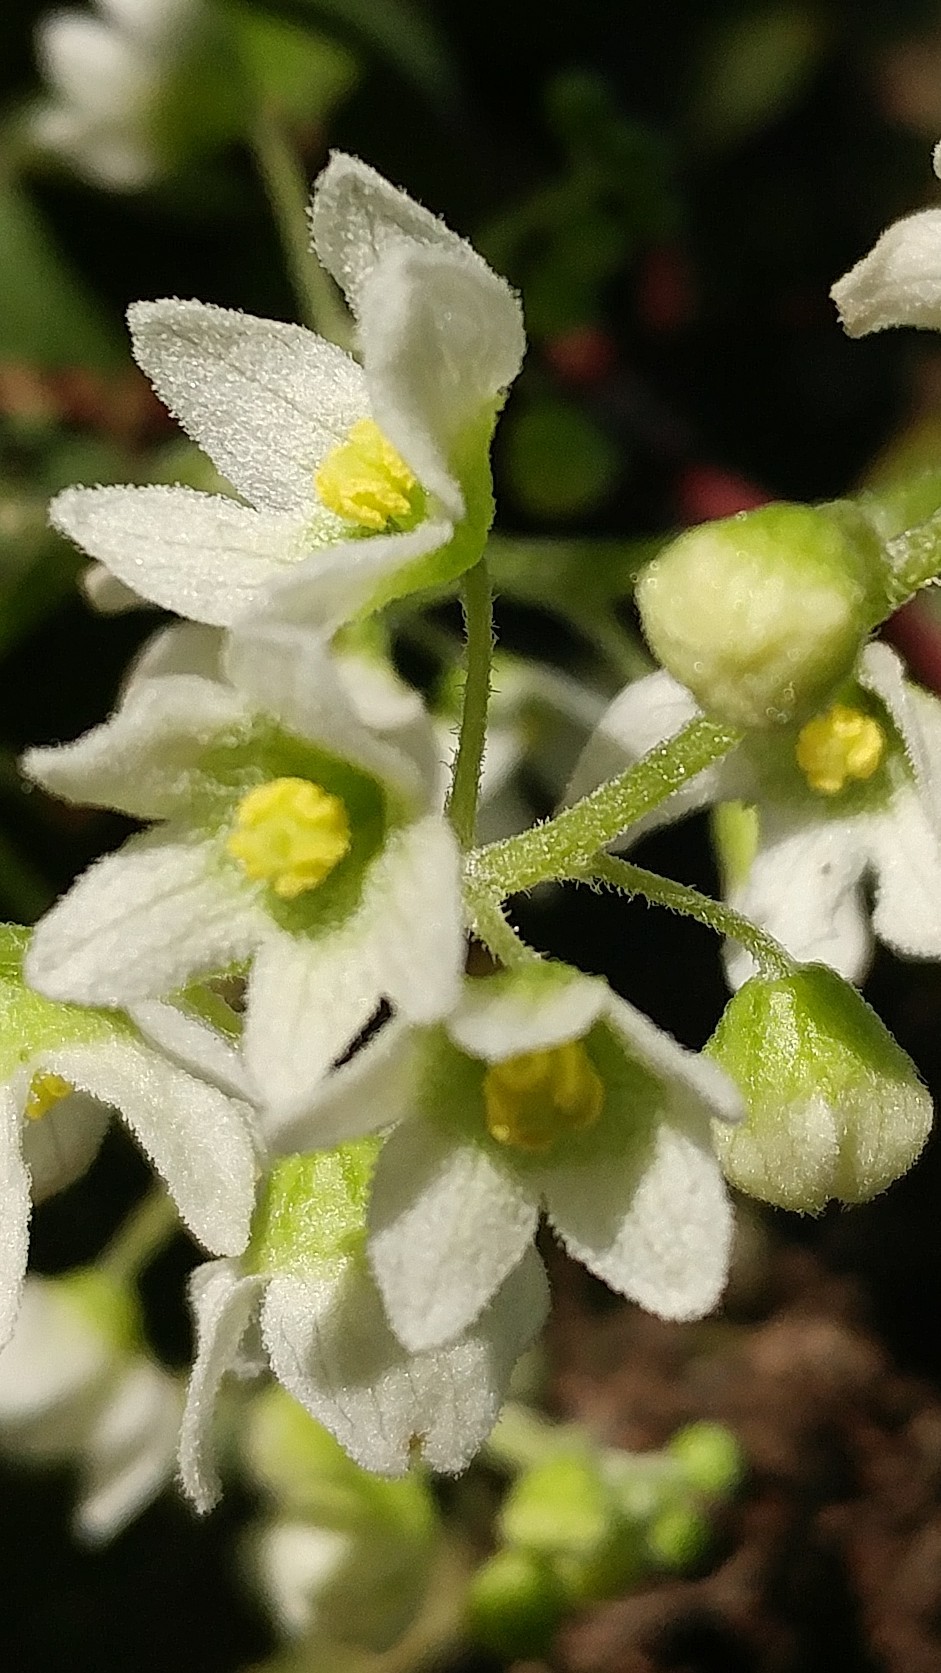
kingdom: Plantae
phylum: Tracheophyta
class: Magnoliopsida
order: Cucurbitales
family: Cucurbitaceae
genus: Marah
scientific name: Marah macrocarpa
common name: Cucamonga manroot
